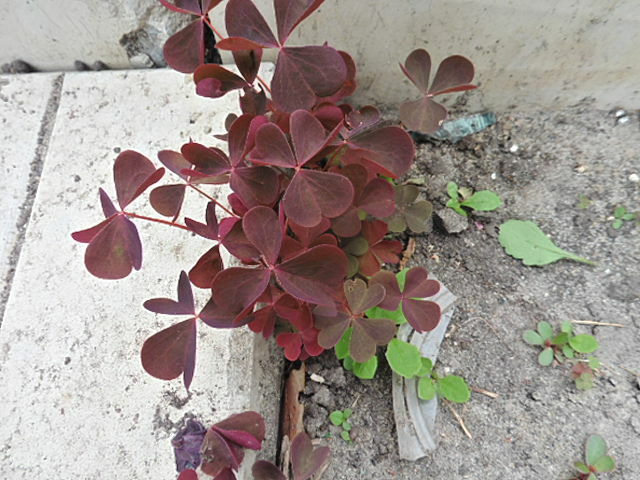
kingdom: Plantae
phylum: Tracheophyta
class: Magnoliopsida
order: Oxalidales
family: Oxalidaceae
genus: Oxalis
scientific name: Oxalis stricta
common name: Upright yellow-sorrel
